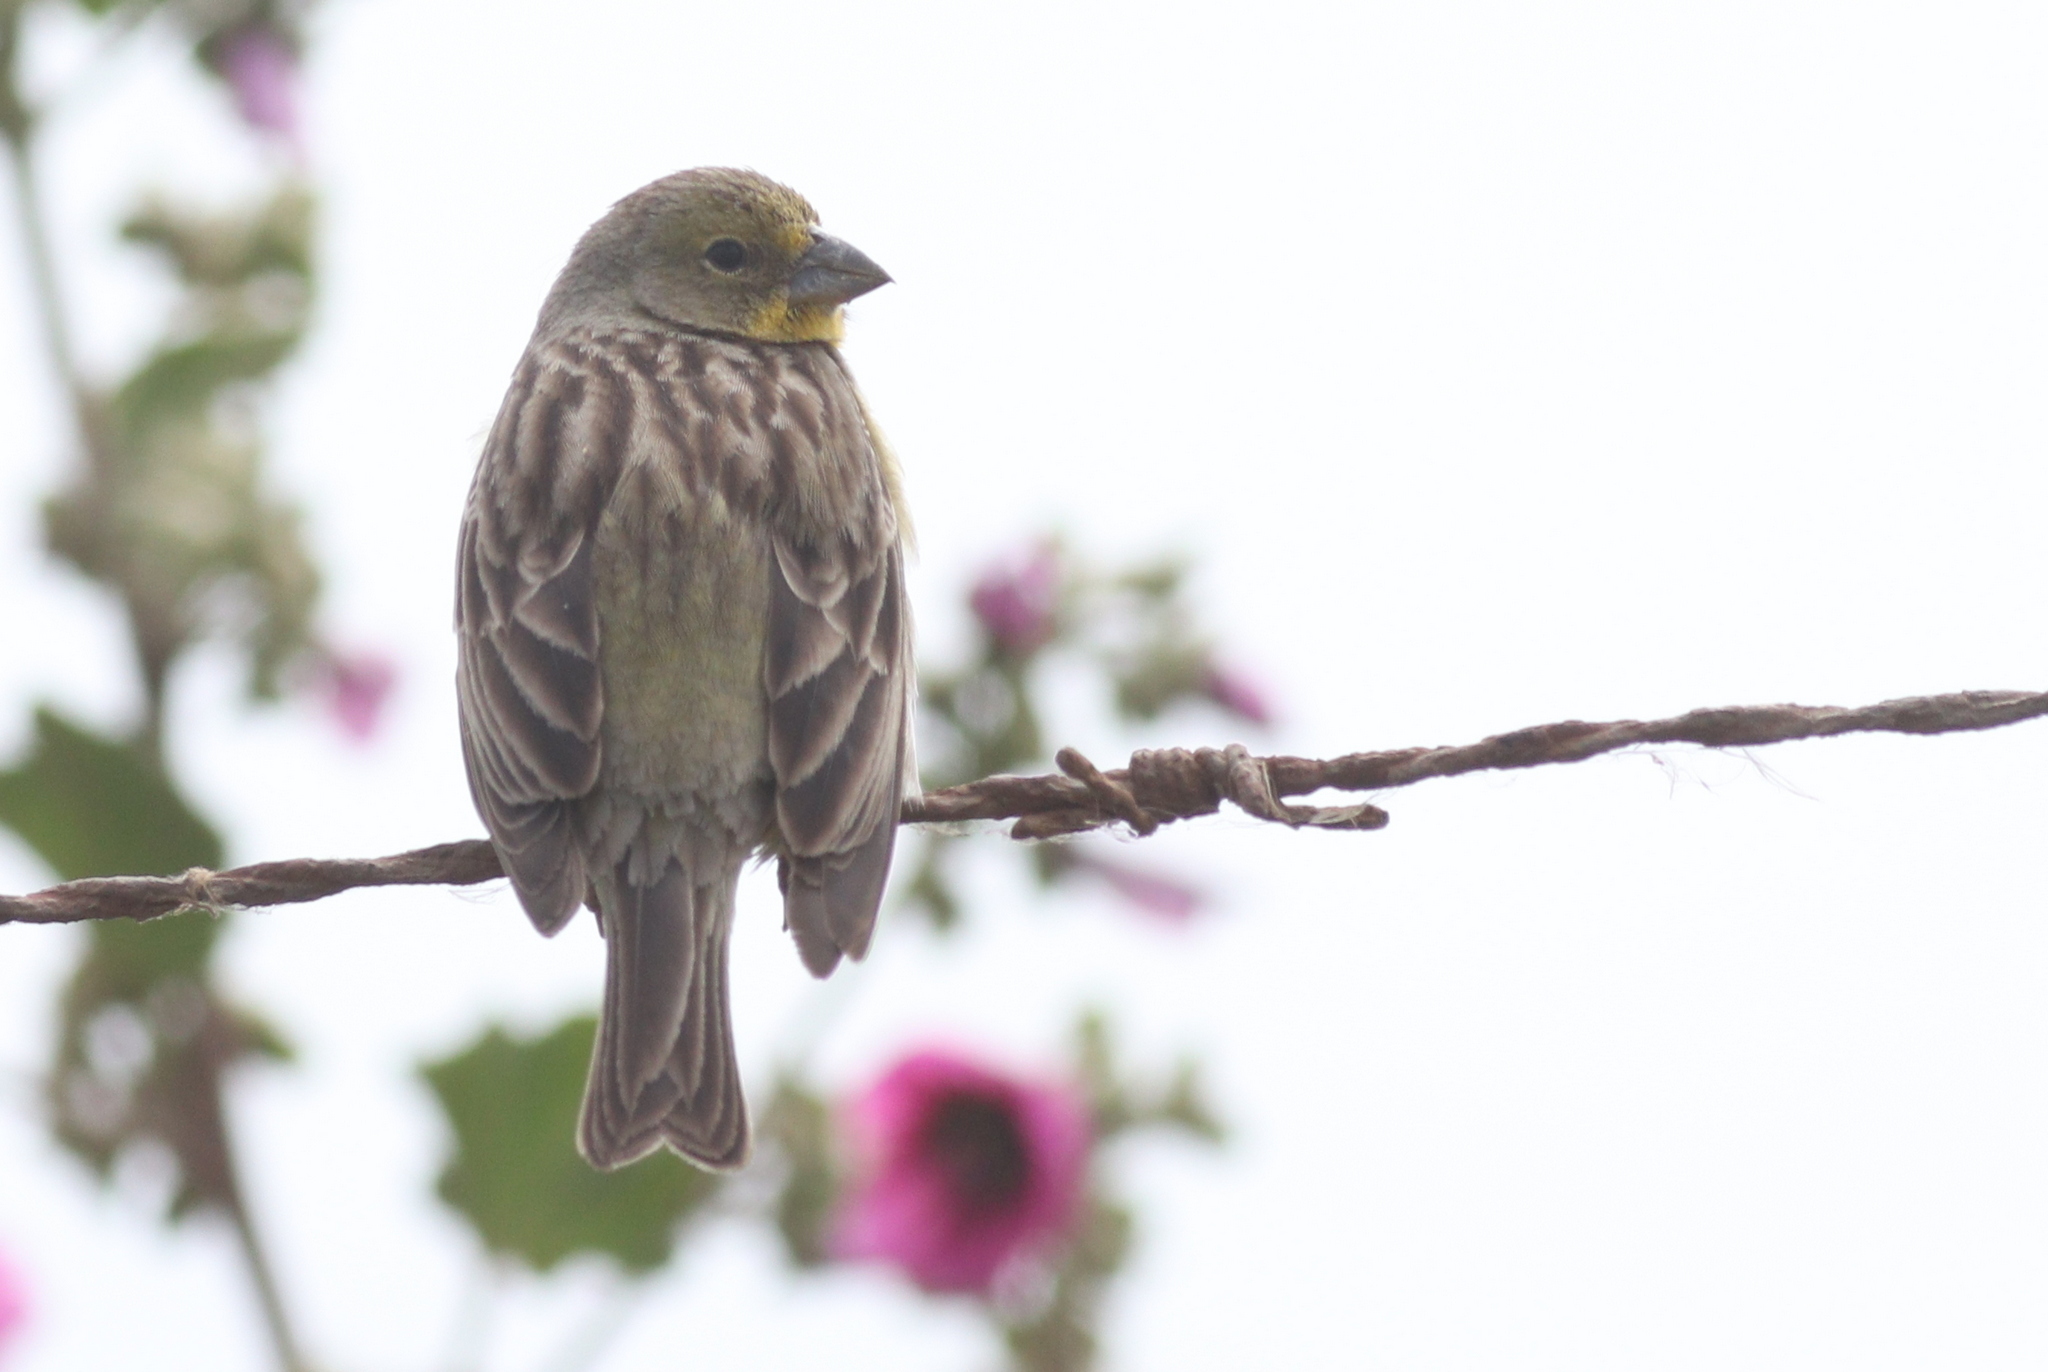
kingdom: Animalia
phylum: Chordata
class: Aves
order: Passeriformes
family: Thraupidae
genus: Sicalis
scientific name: Sicalis luteola
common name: Grassland yellow-finch
